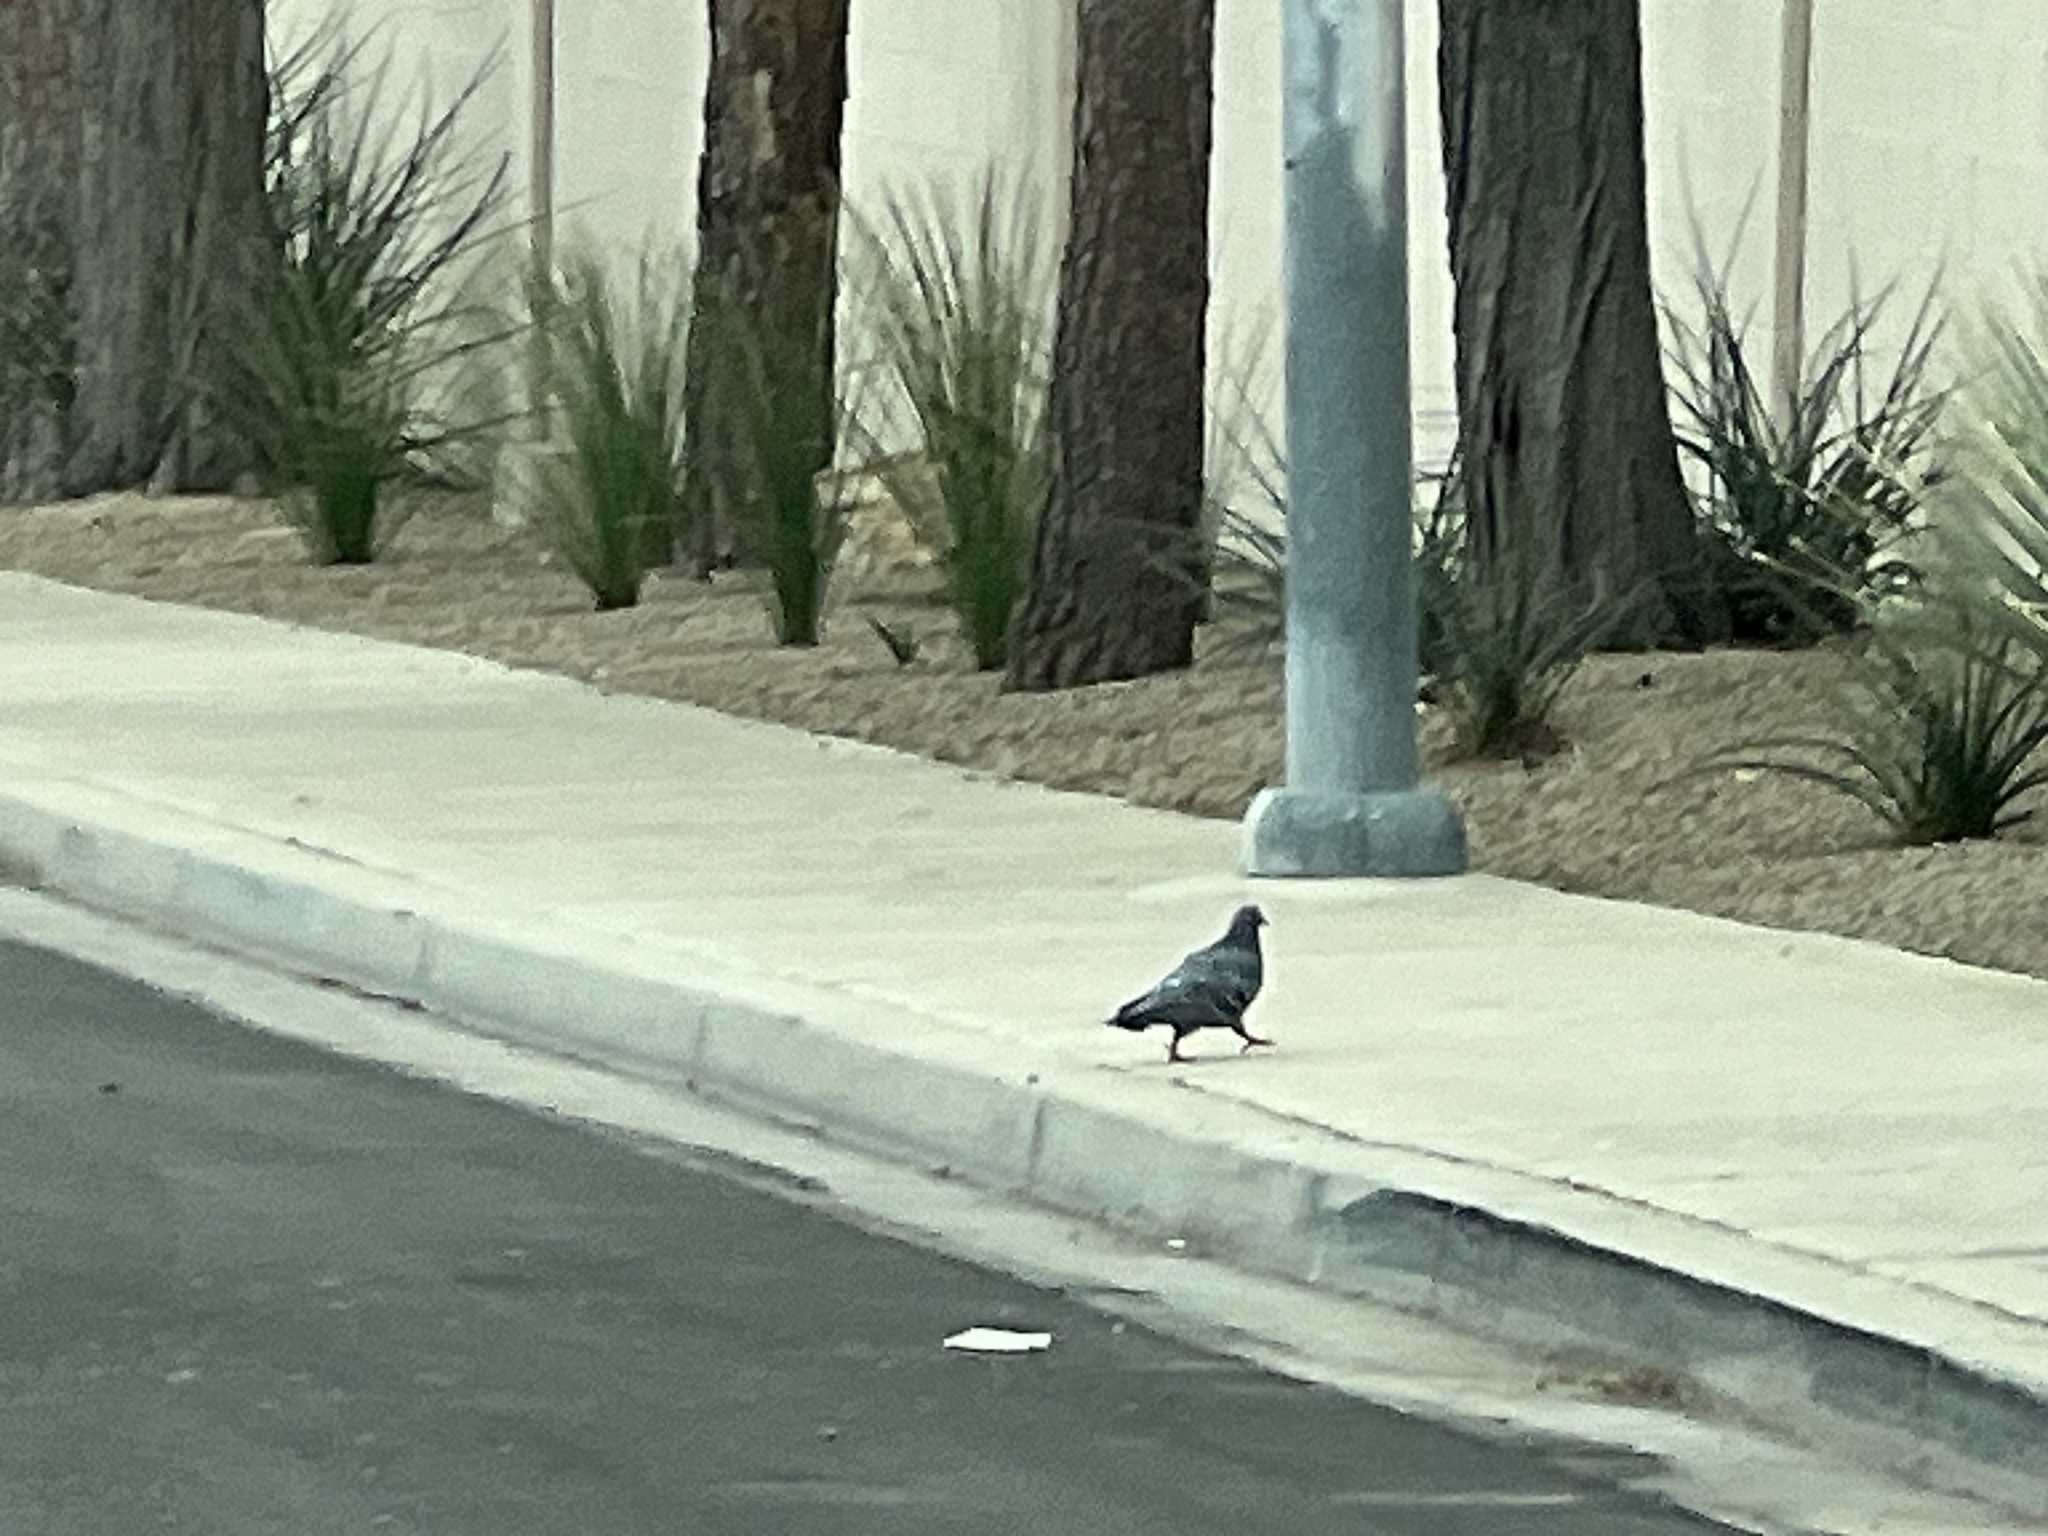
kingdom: Animalia
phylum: Chordata
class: Aves
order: Columbiformes
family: Columbidae
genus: Columba
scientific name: Columba livia
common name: Rock pigeon
